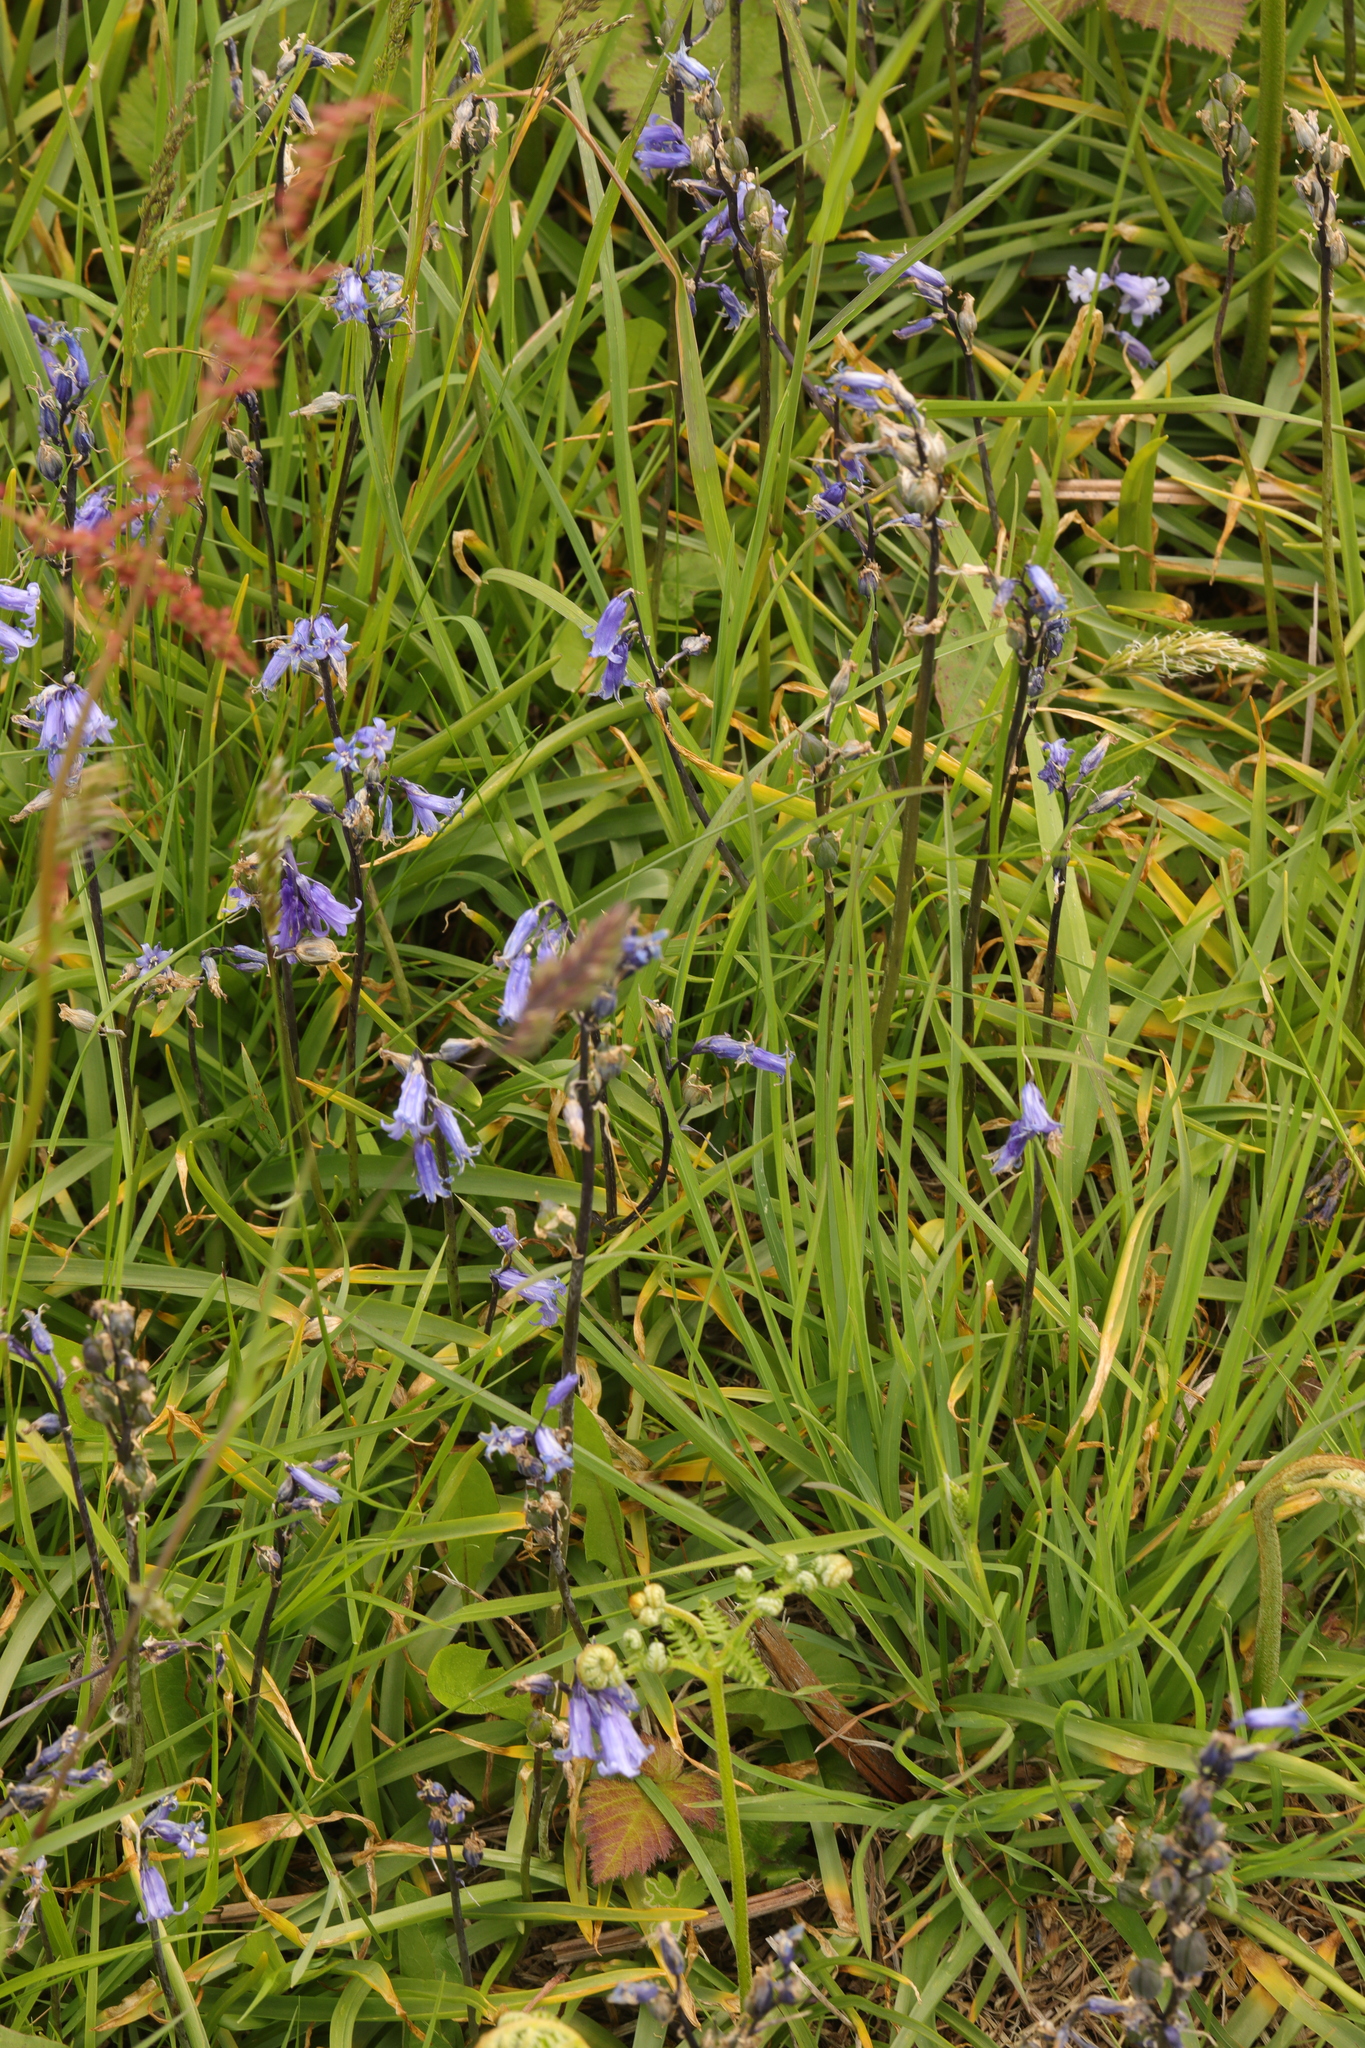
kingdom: Plantae
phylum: Tracheophyta
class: Liliopsida
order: Asparagales
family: Asparagaceae
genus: Hyacinthoides
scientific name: Hyacinthoides non-scripta
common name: Bluebell
